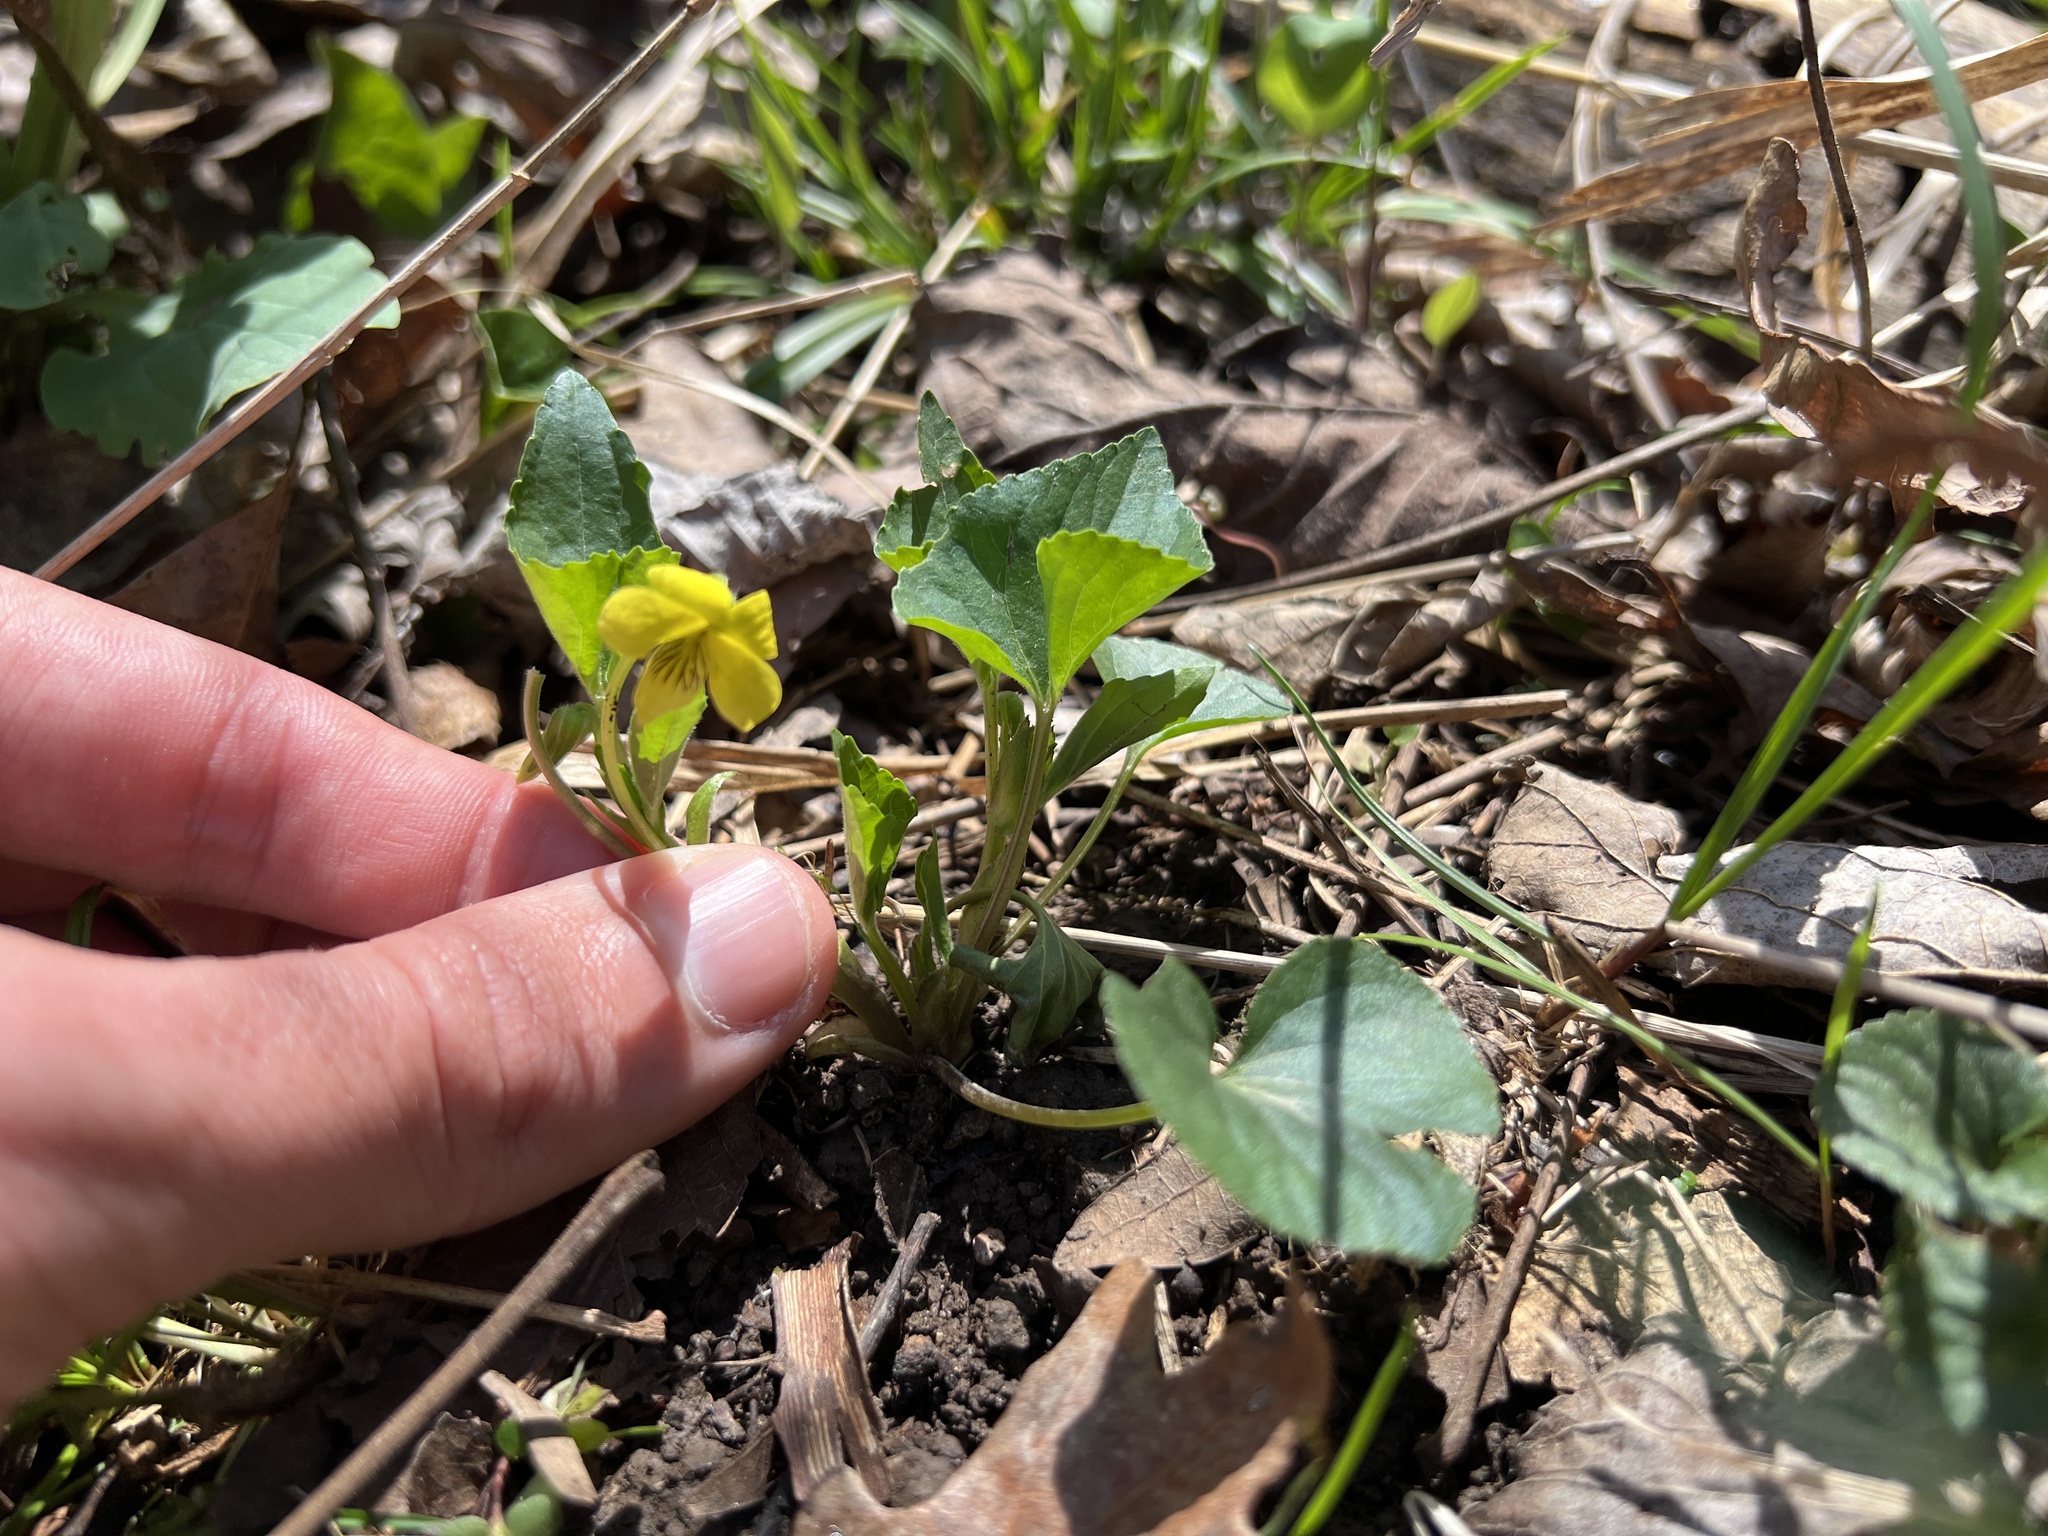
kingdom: Plantae
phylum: Tracheophyta
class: Magnoliopsida
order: Malpighiales
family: Violaceae
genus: Viola
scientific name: Viola eriocarpa
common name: Smooth yellow violet
